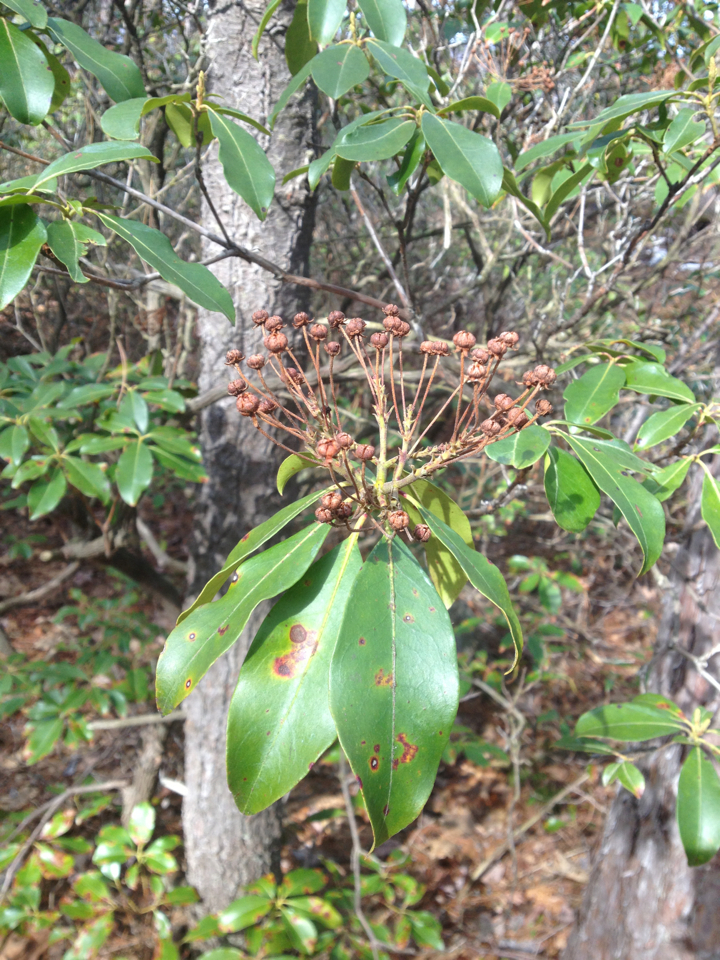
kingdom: Plantae
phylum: Tracheophyta
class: Magnoliopsida
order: Ericales
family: Ericaceae
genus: Kalmia
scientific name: Kalmia latifolia
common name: Mountain-laurel
